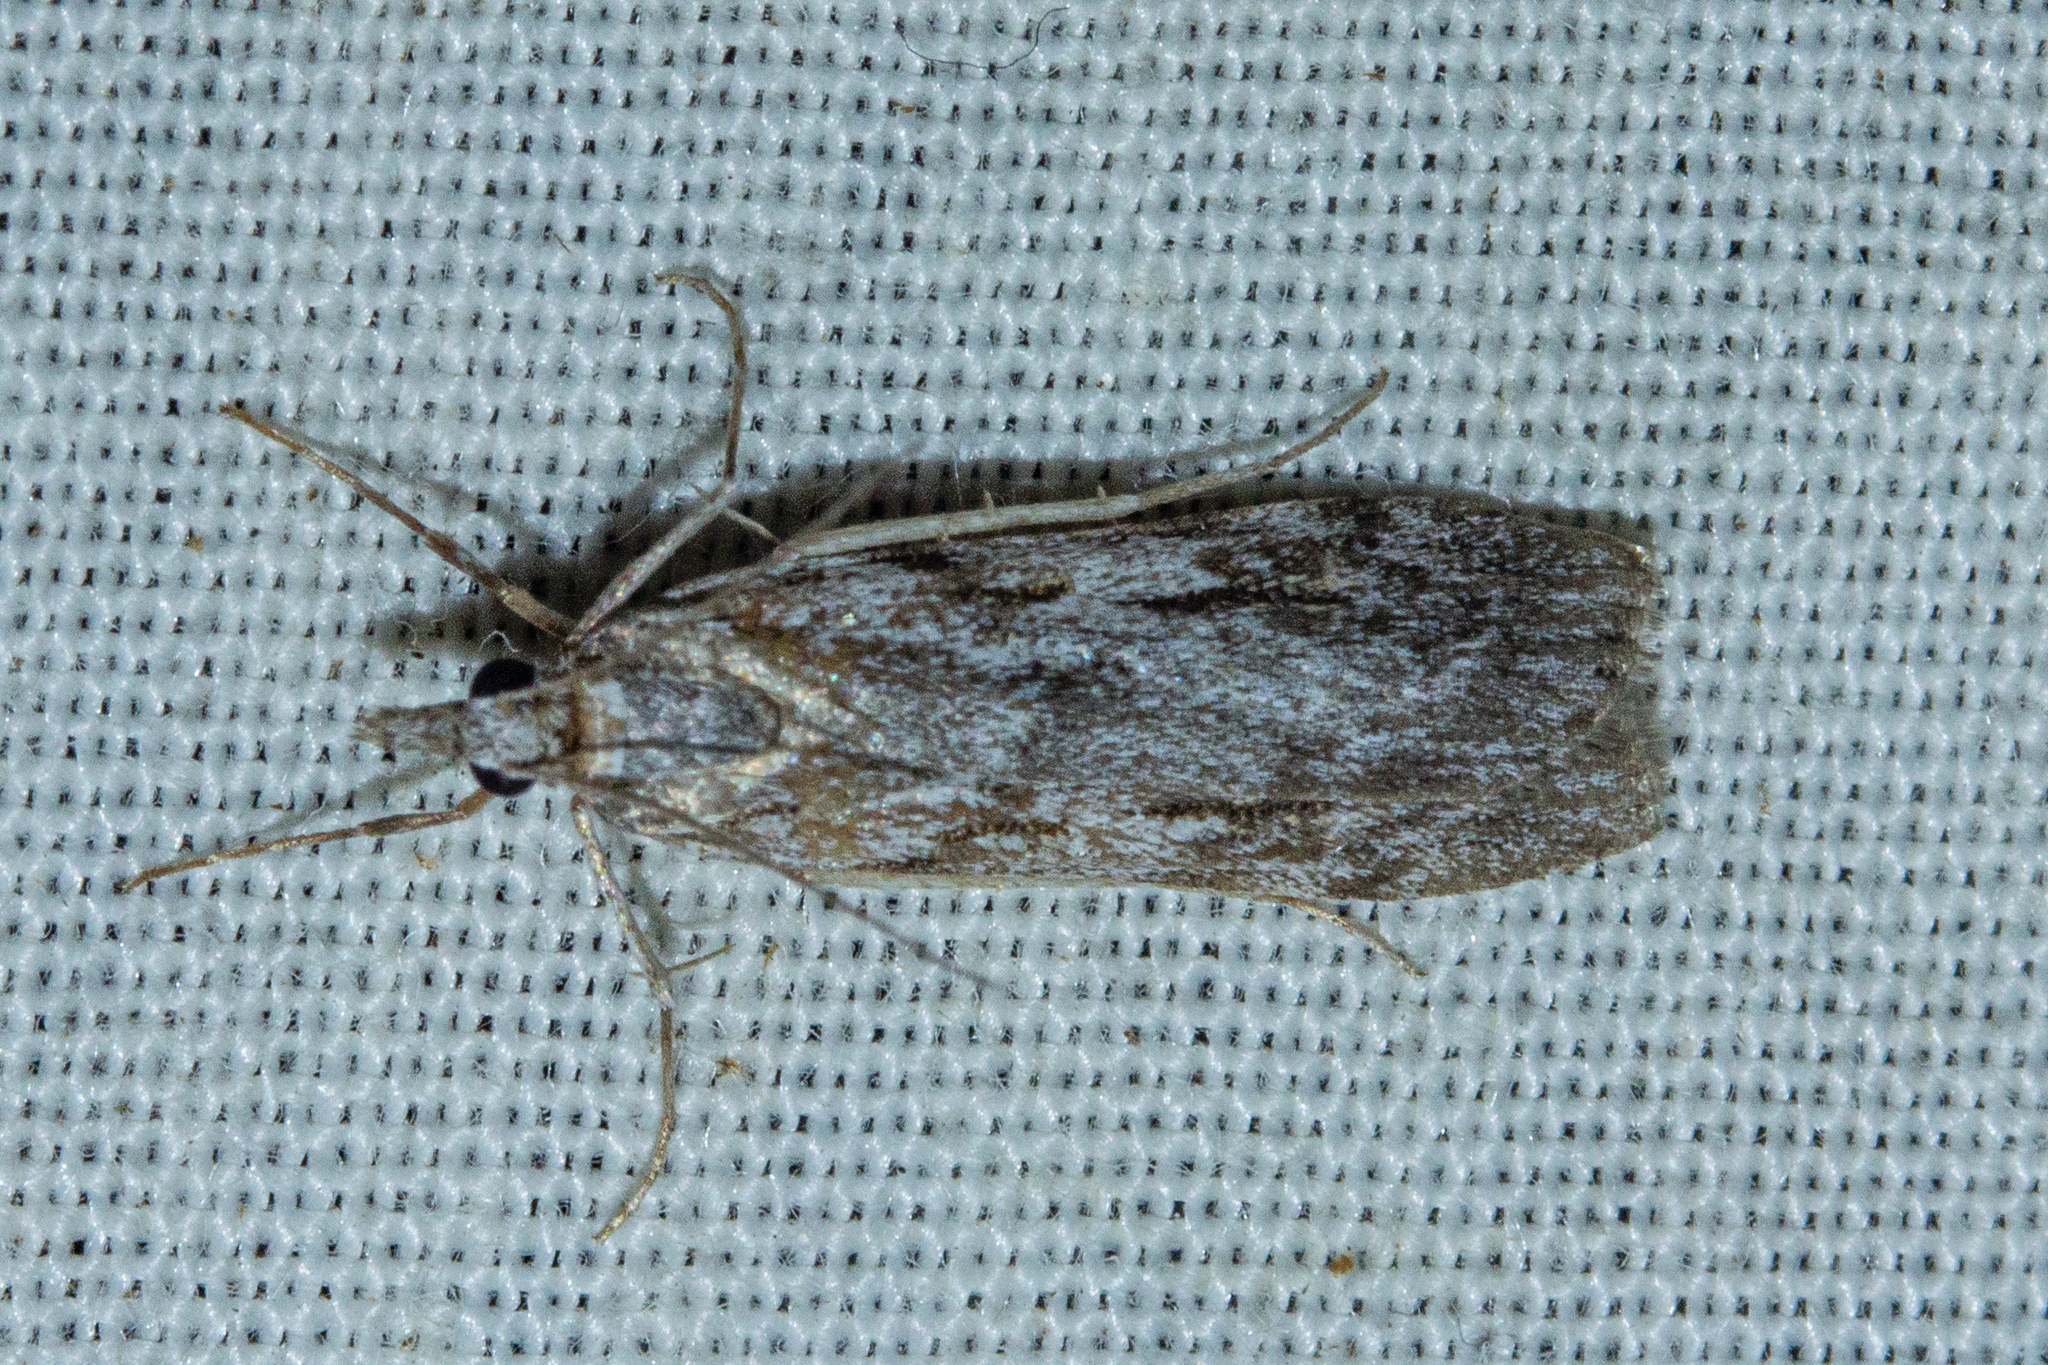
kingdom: Animalia
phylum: Arthropoda
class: Insecta
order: Lepidoptera
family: Crambidae
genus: Scoparia
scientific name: Scoparia halopis
